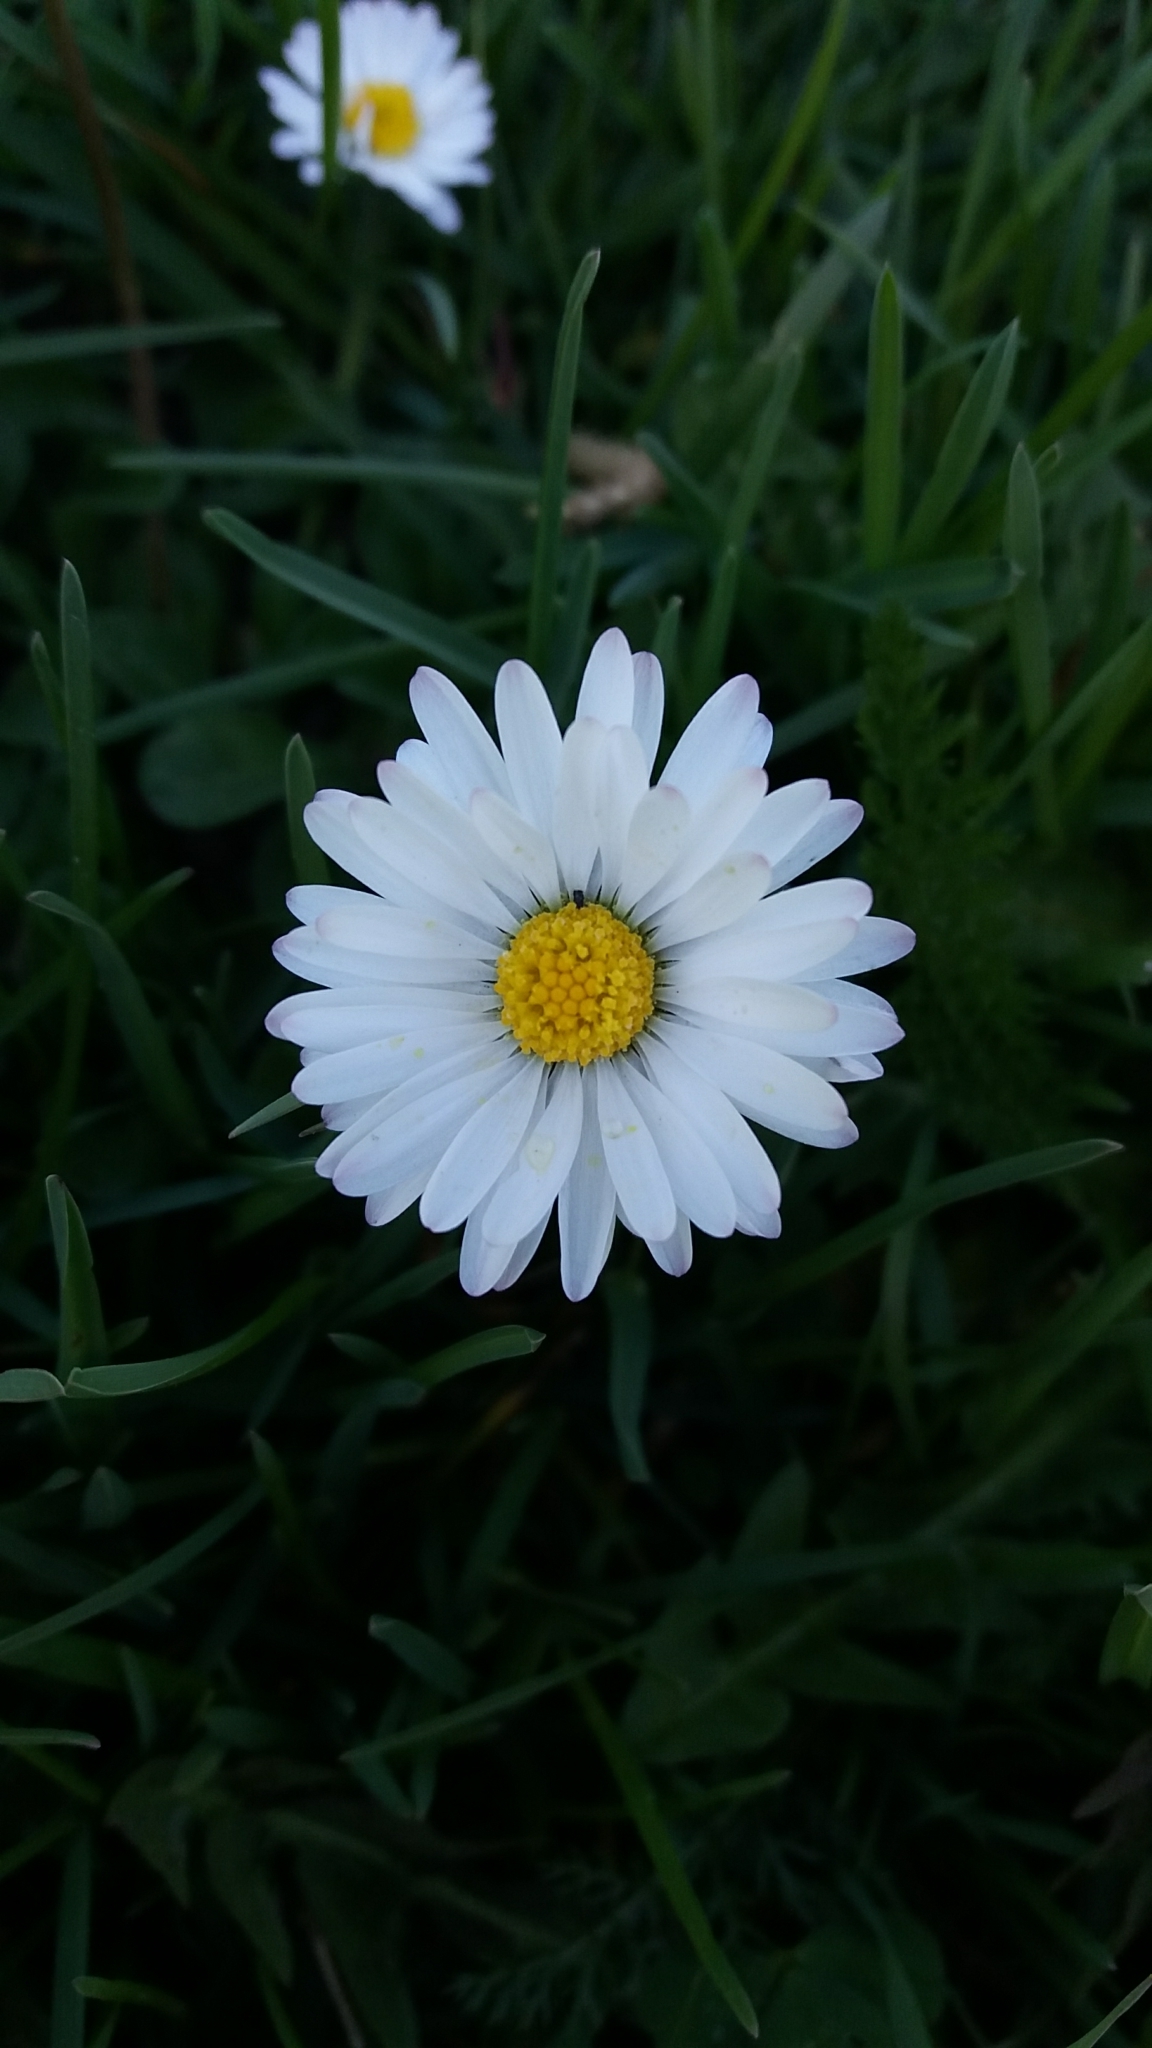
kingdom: Plantae
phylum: Tracheophyta
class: Magnoliopsida
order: Asterales
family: Asteraceae
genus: Bellis
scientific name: Bellis perennis
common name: Lawndaisy
